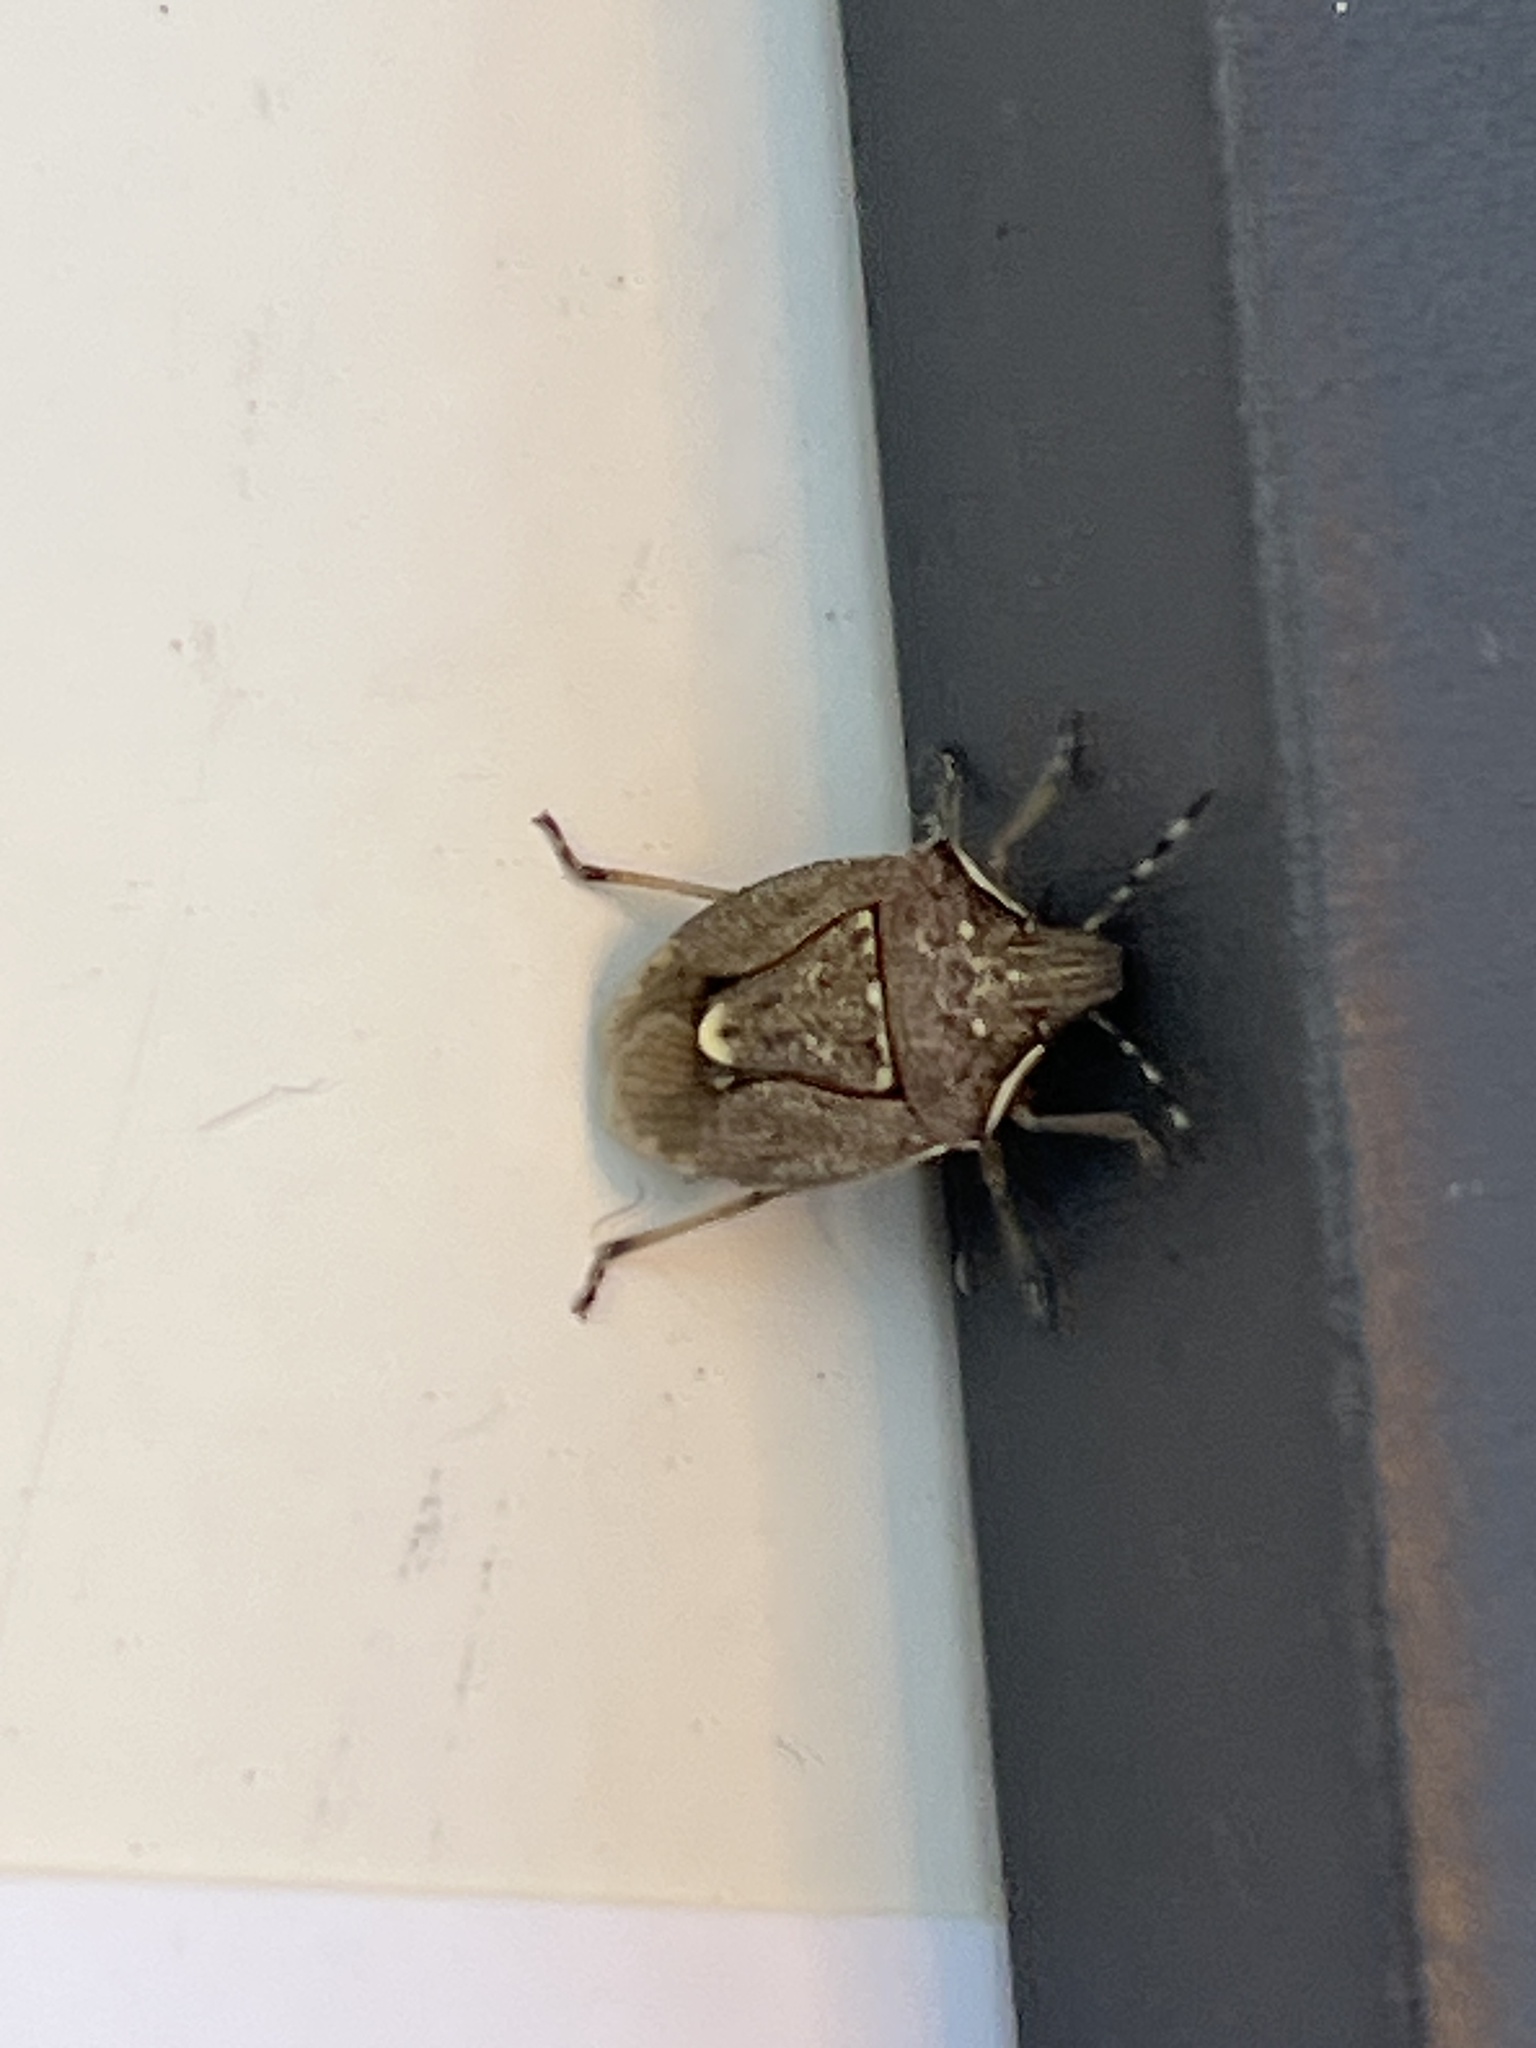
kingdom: Animalia
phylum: Arthropoda
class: Insecta
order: Hemiptera
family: Pentatomidae
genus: Holcostethus
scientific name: Holcostethus albipes
